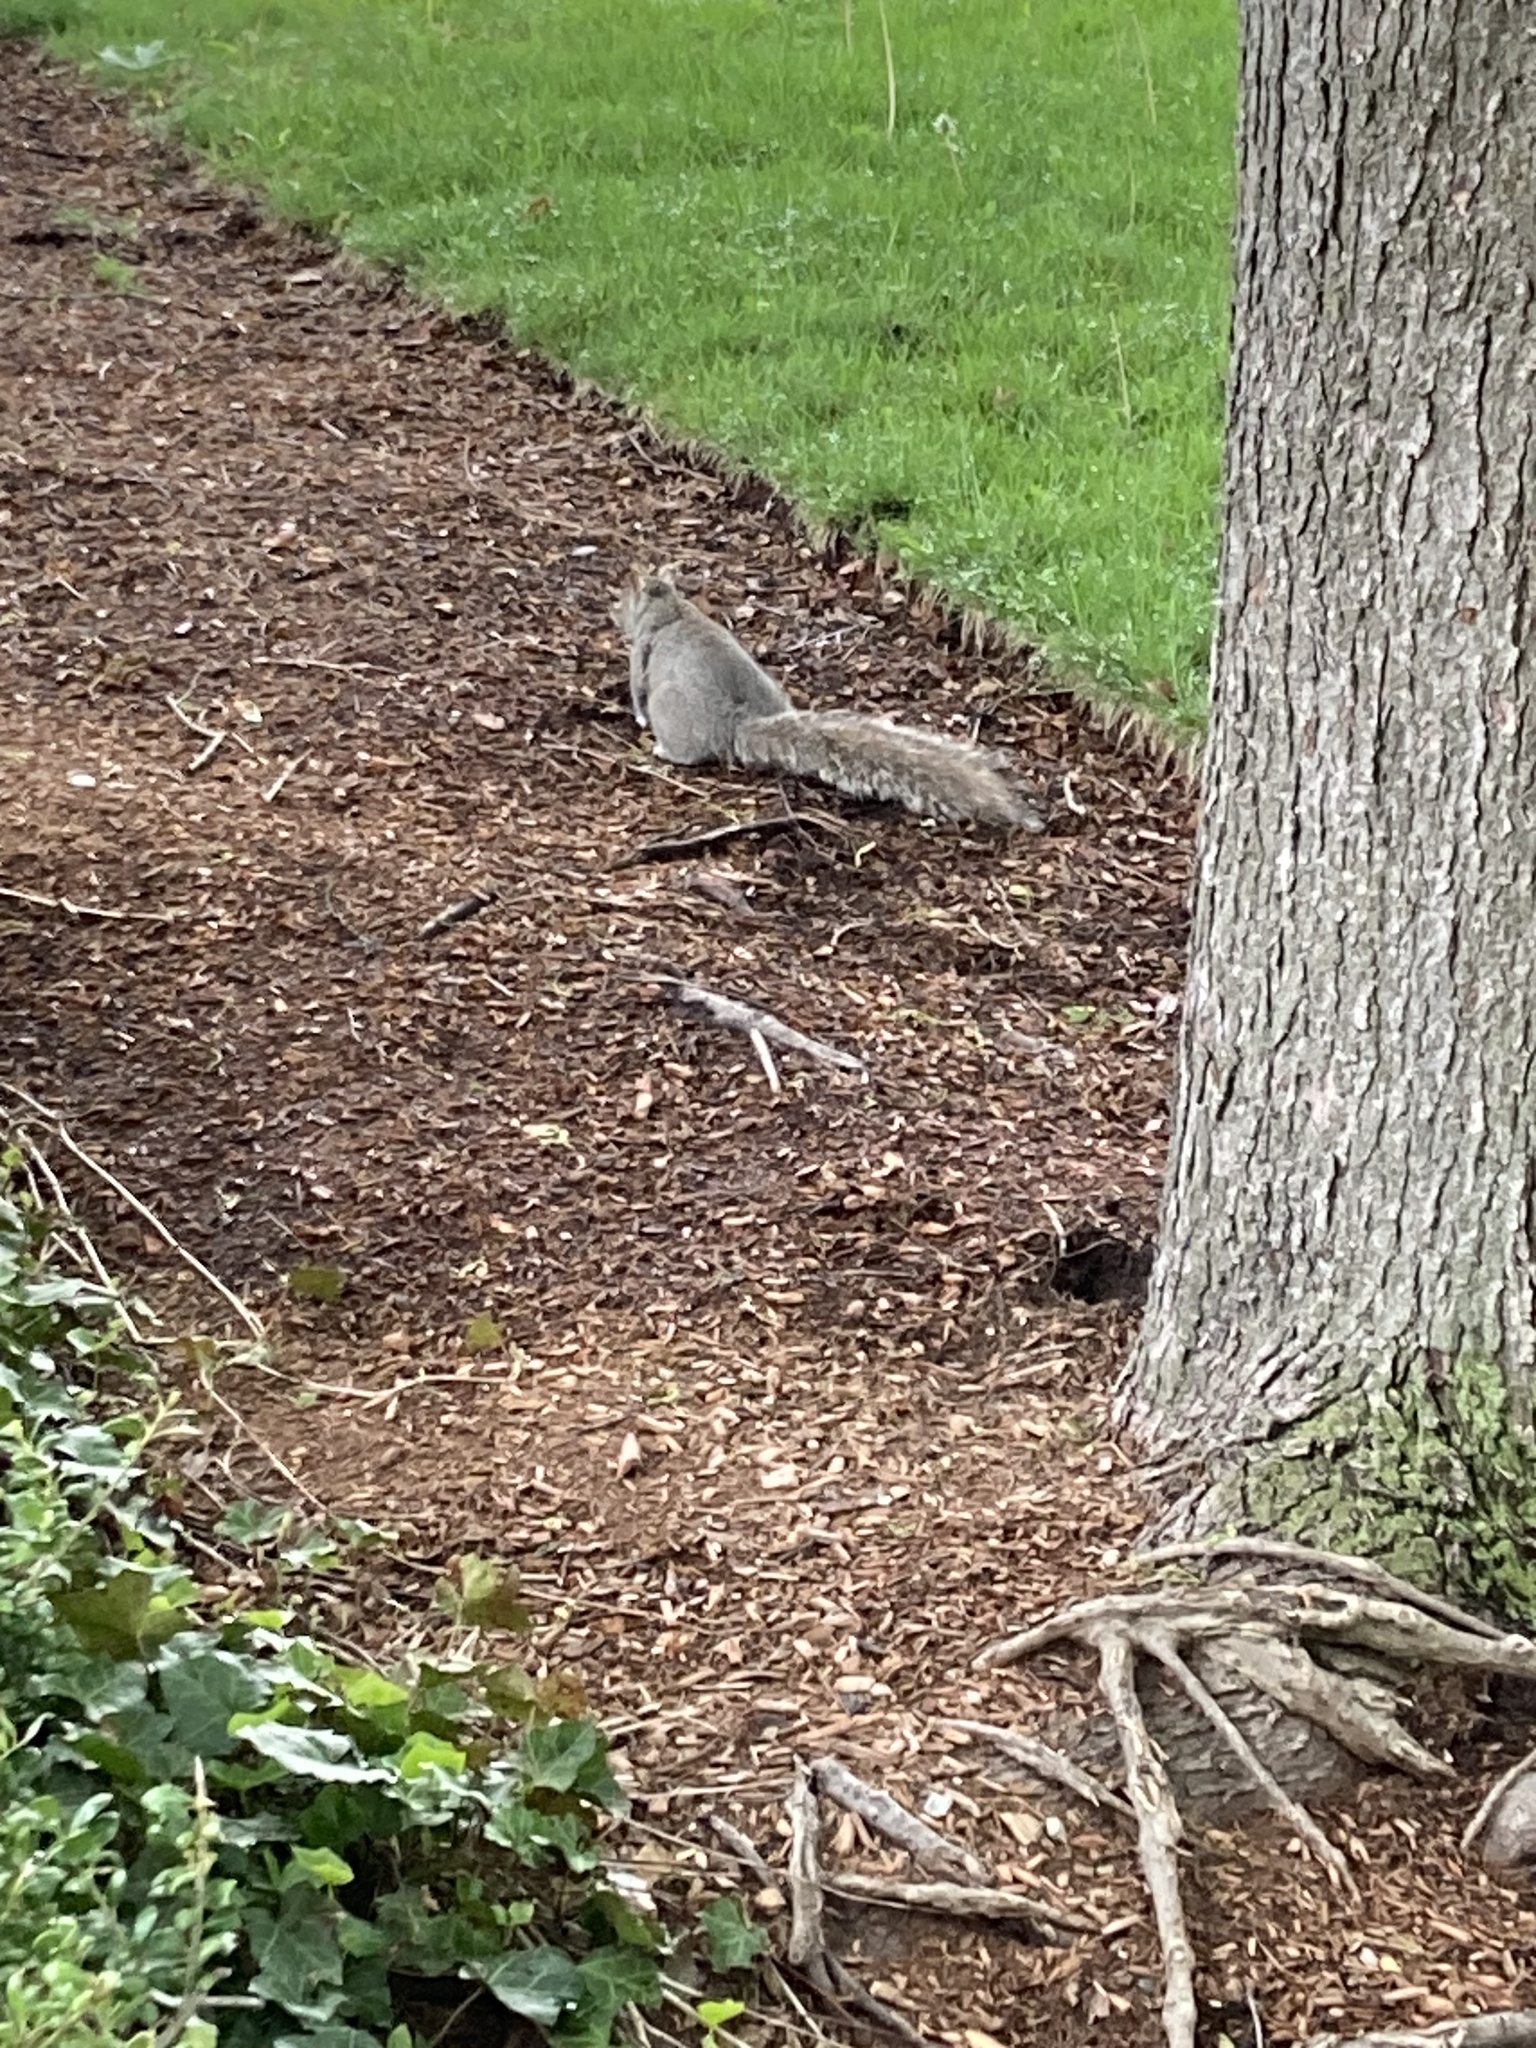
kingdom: Animalia
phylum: Chordata
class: Mammalia
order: Rodentia
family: Sciuridae
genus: Sciurus
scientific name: Sciurus carolinensis
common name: Eastern gray squirrel
